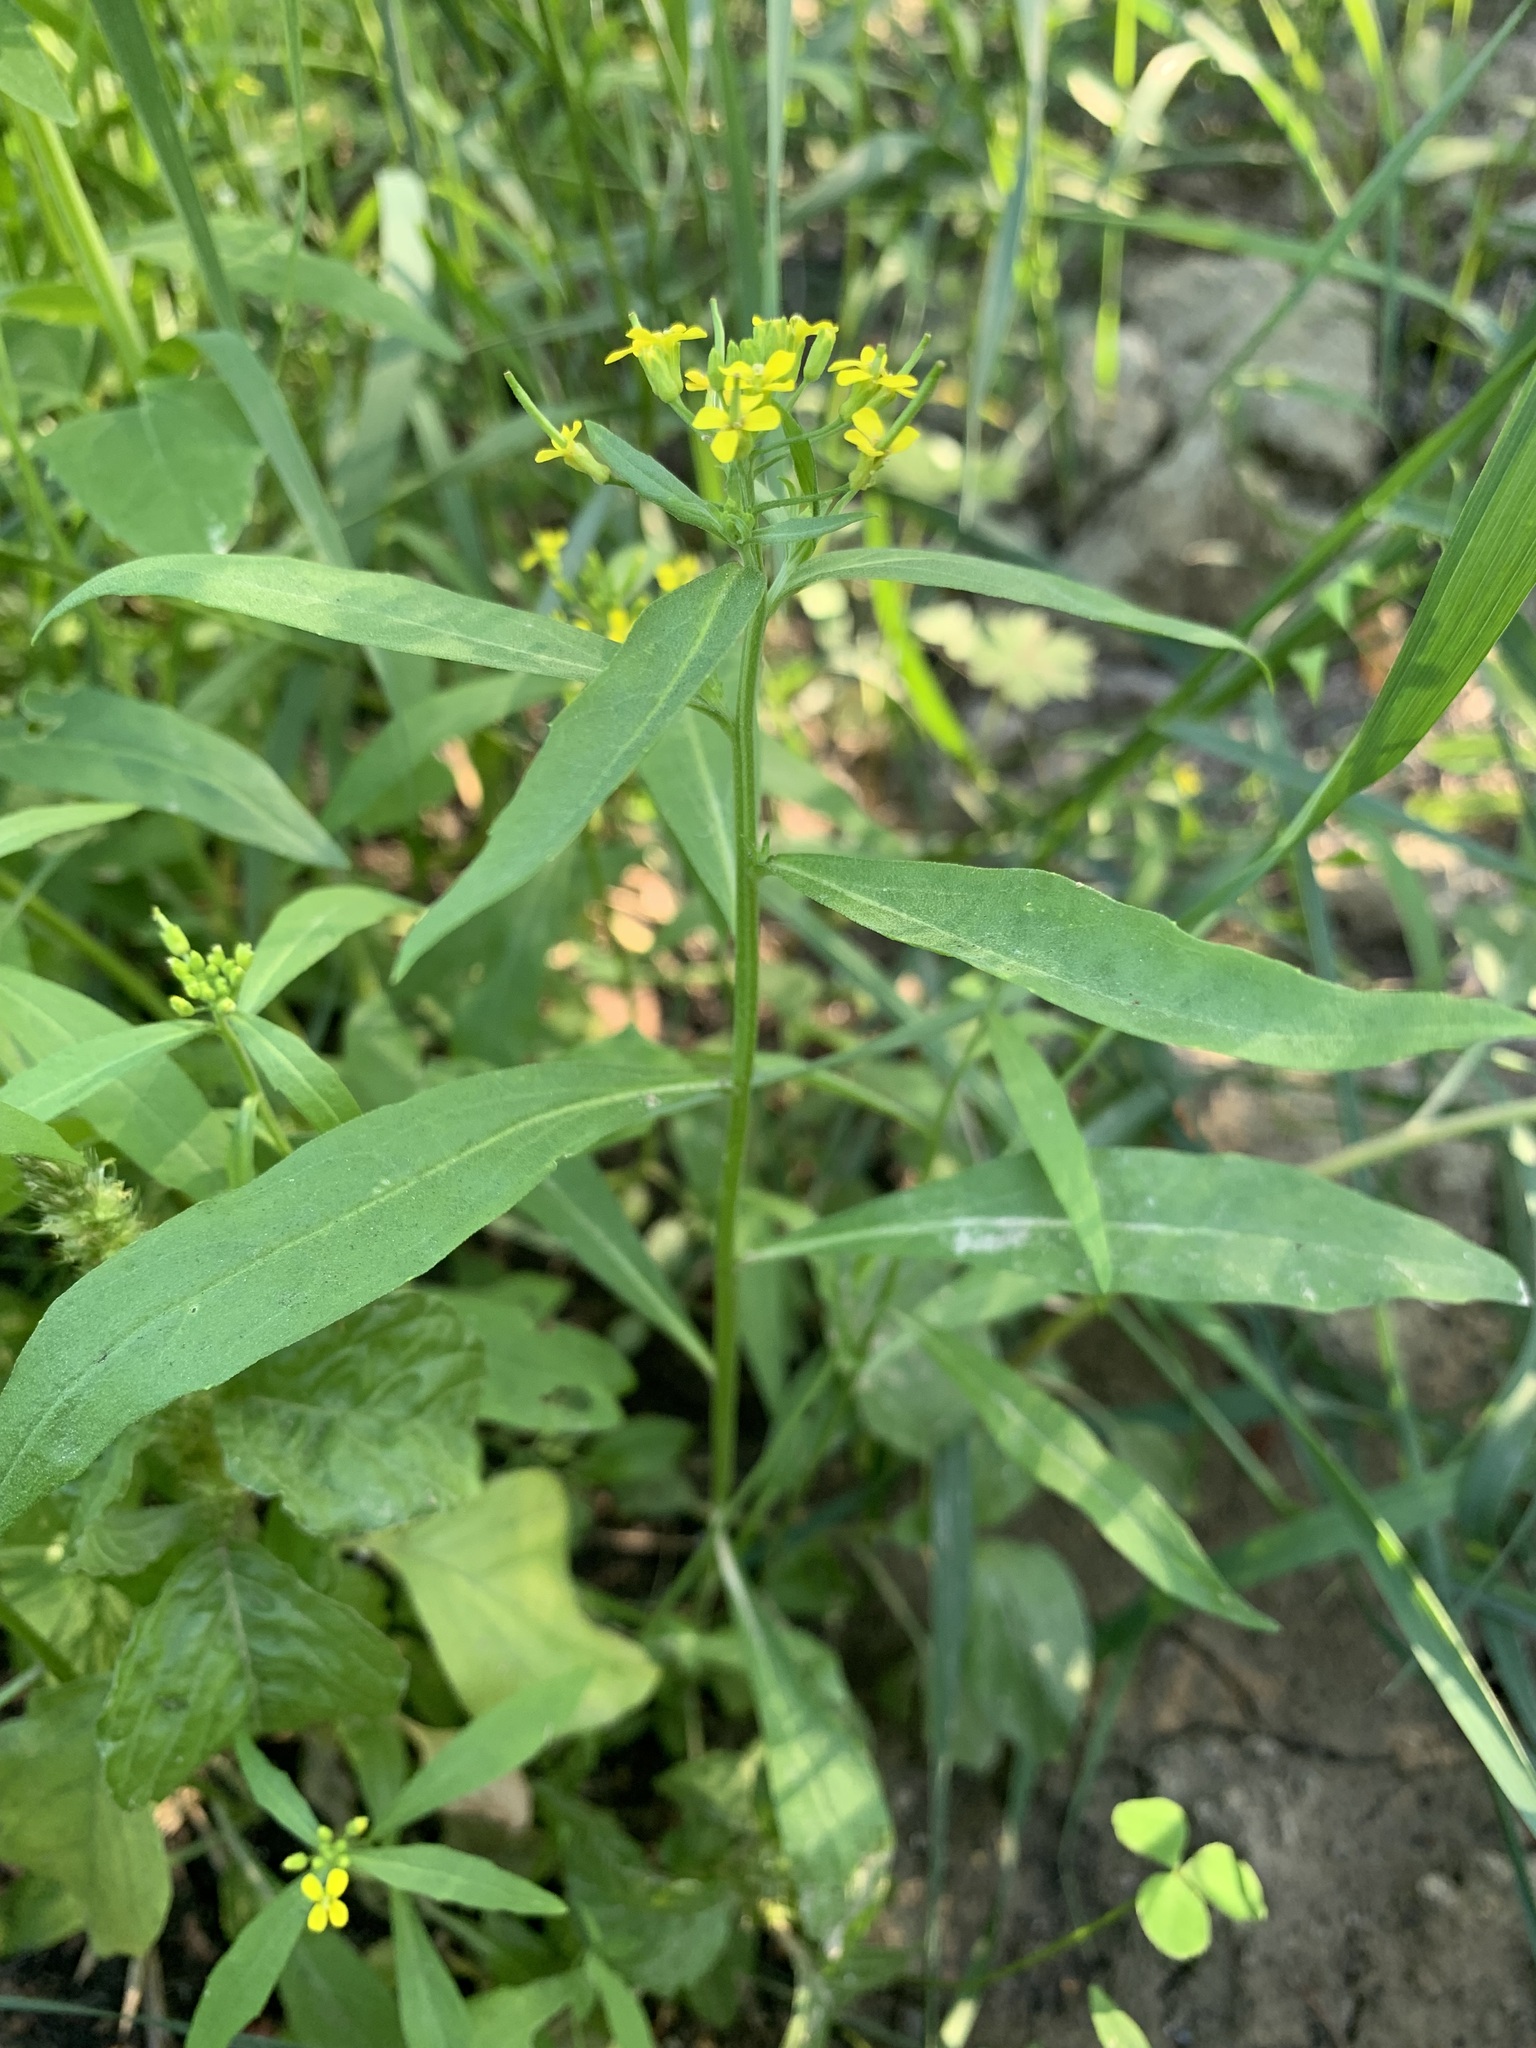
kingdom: Plantae
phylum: Tracheophyta
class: Magnoliopsida
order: Brassicales
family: Brassicaceae
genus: Erysimum
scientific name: Erysimum cheiranthoides
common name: Treacle mustard
